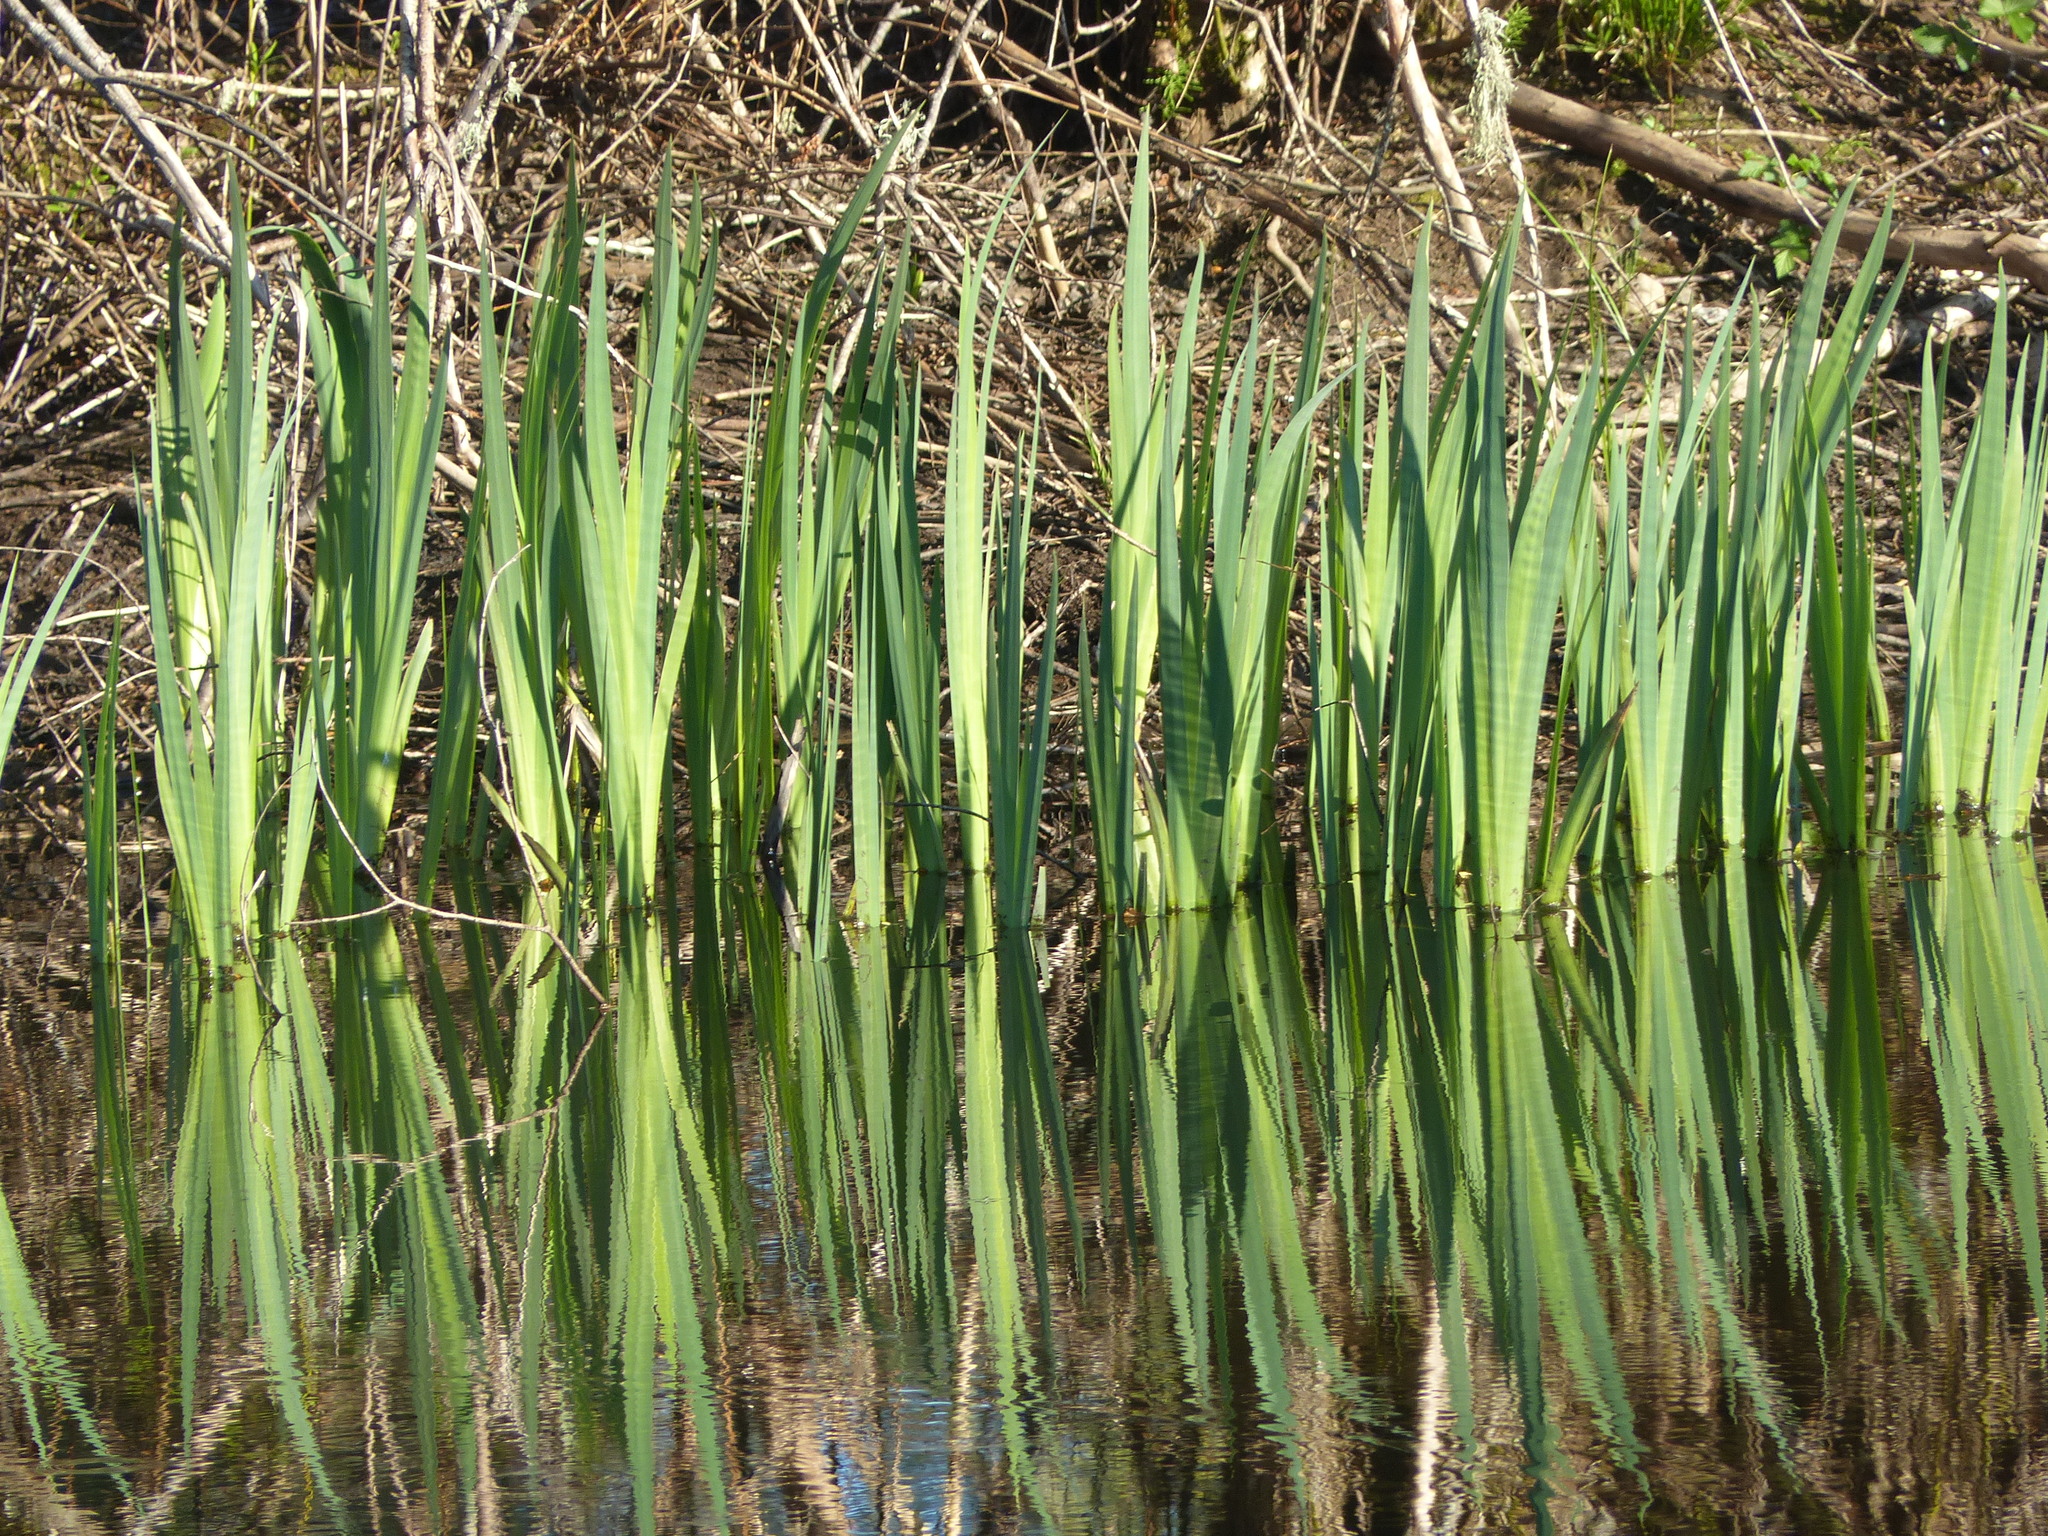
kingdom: Plantae
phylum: Tracheophyta
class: Liliopsida
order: Asparagales
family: Iridaceae
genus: Iris
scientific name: Iris pseudacorus
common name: Yellow flag
